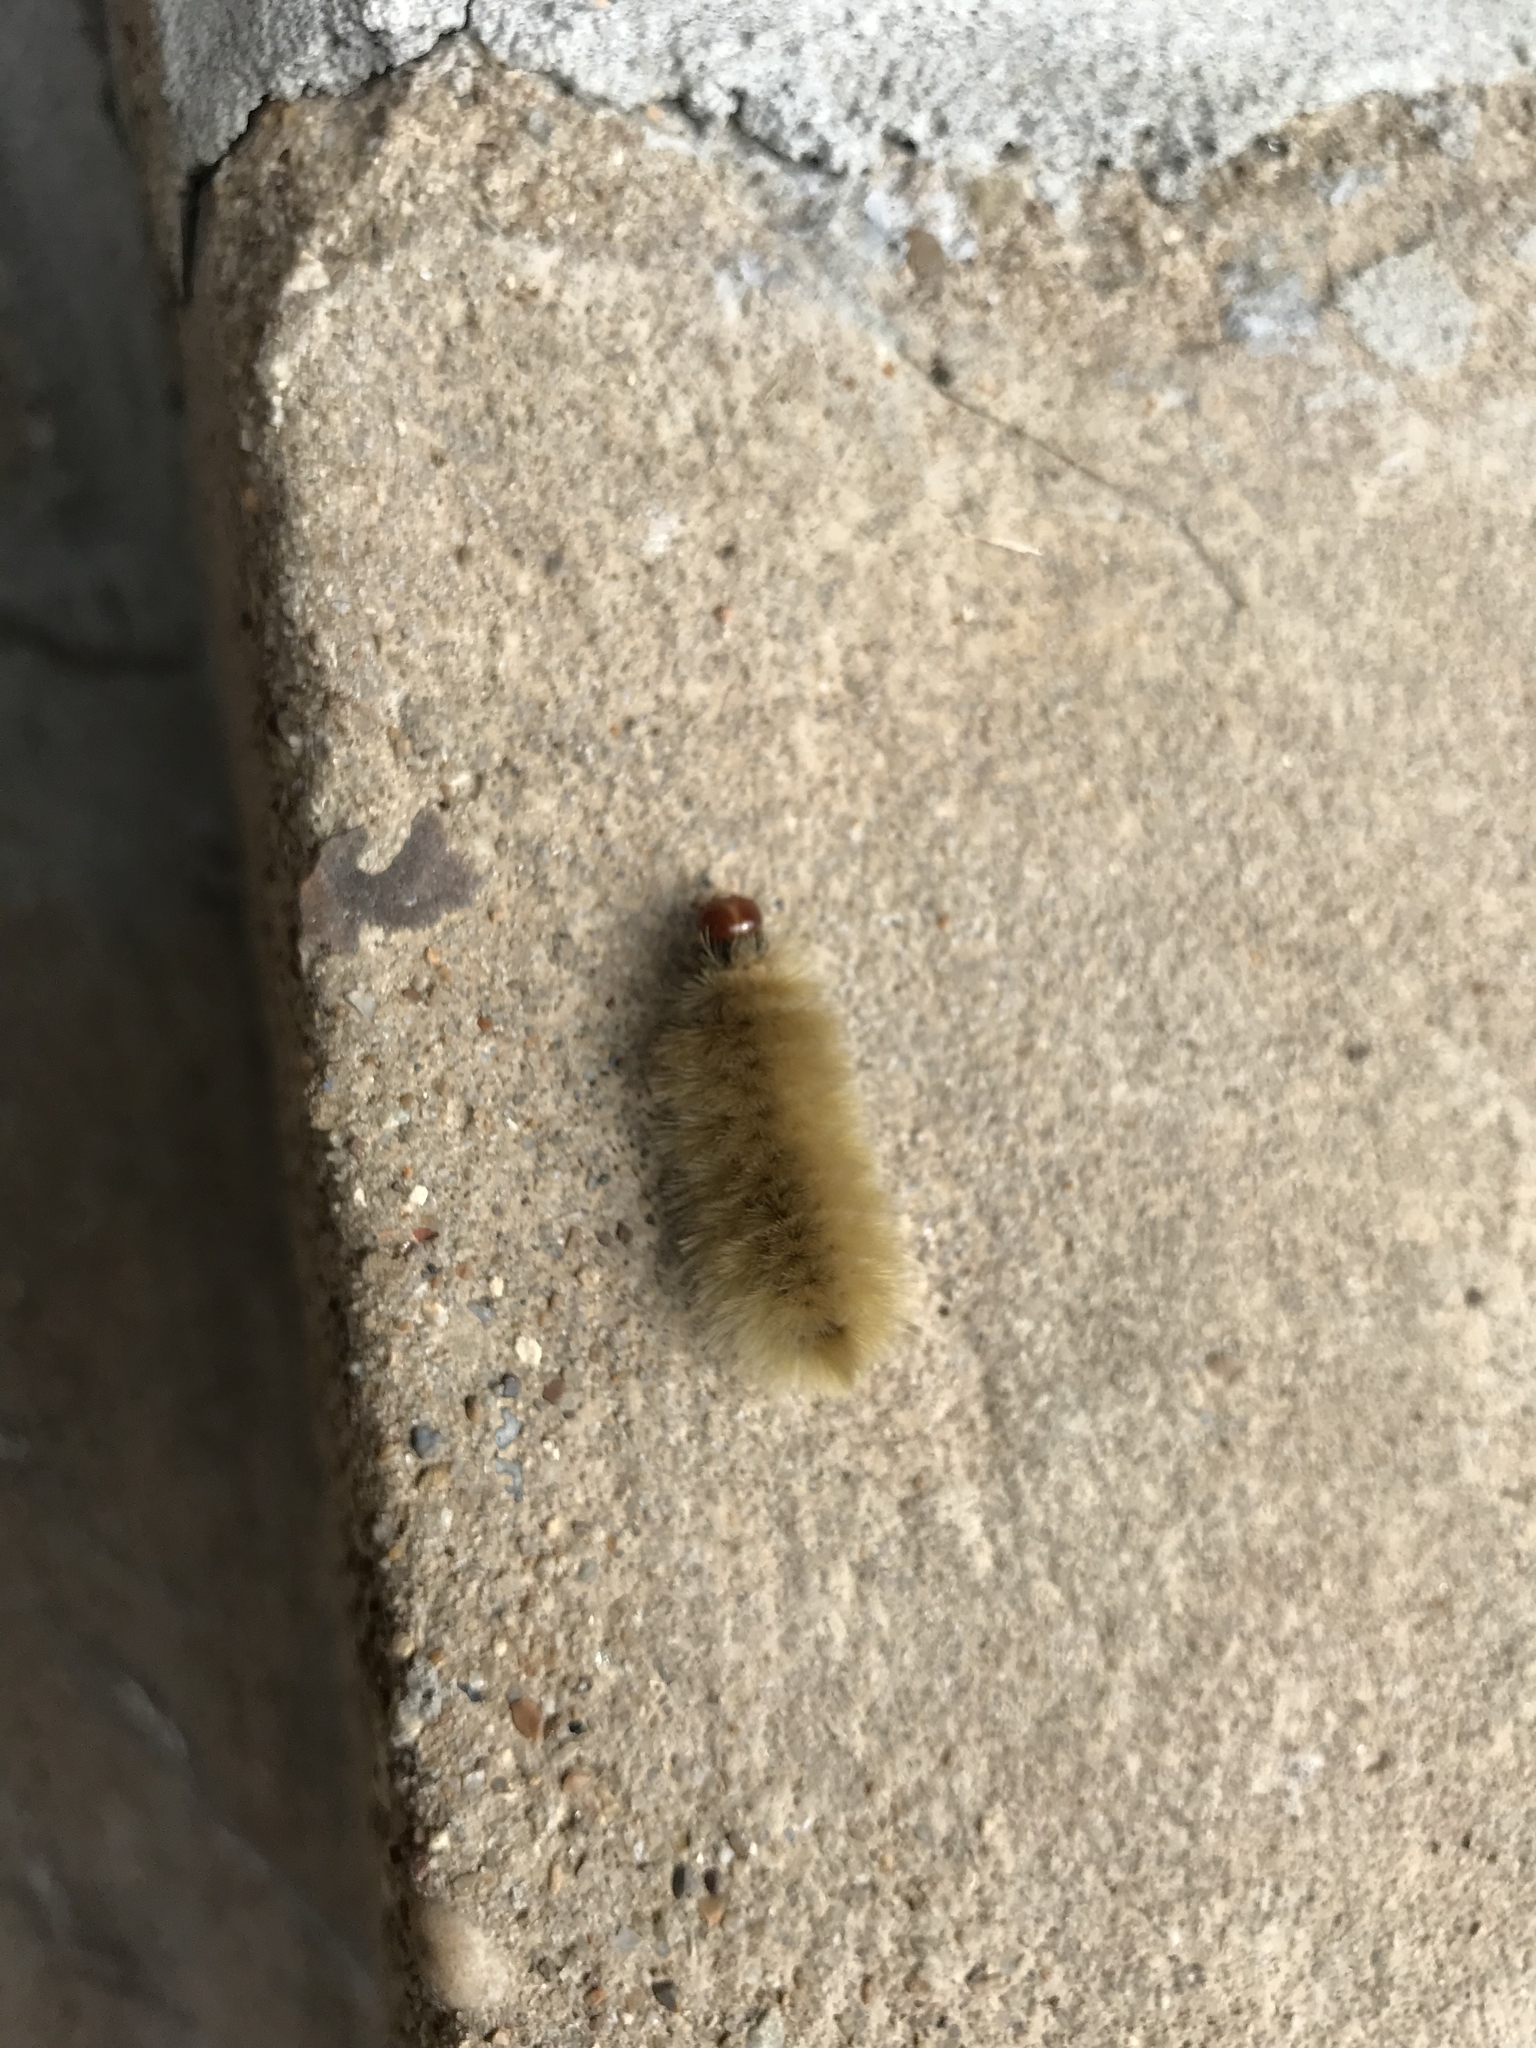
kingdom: Animalia
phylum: Arthropoda
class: Insecta
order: Lepidoptera
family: Erebidae
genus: Halysidota
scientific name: Halysidota harrisii
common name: Sycamore tussock moth
